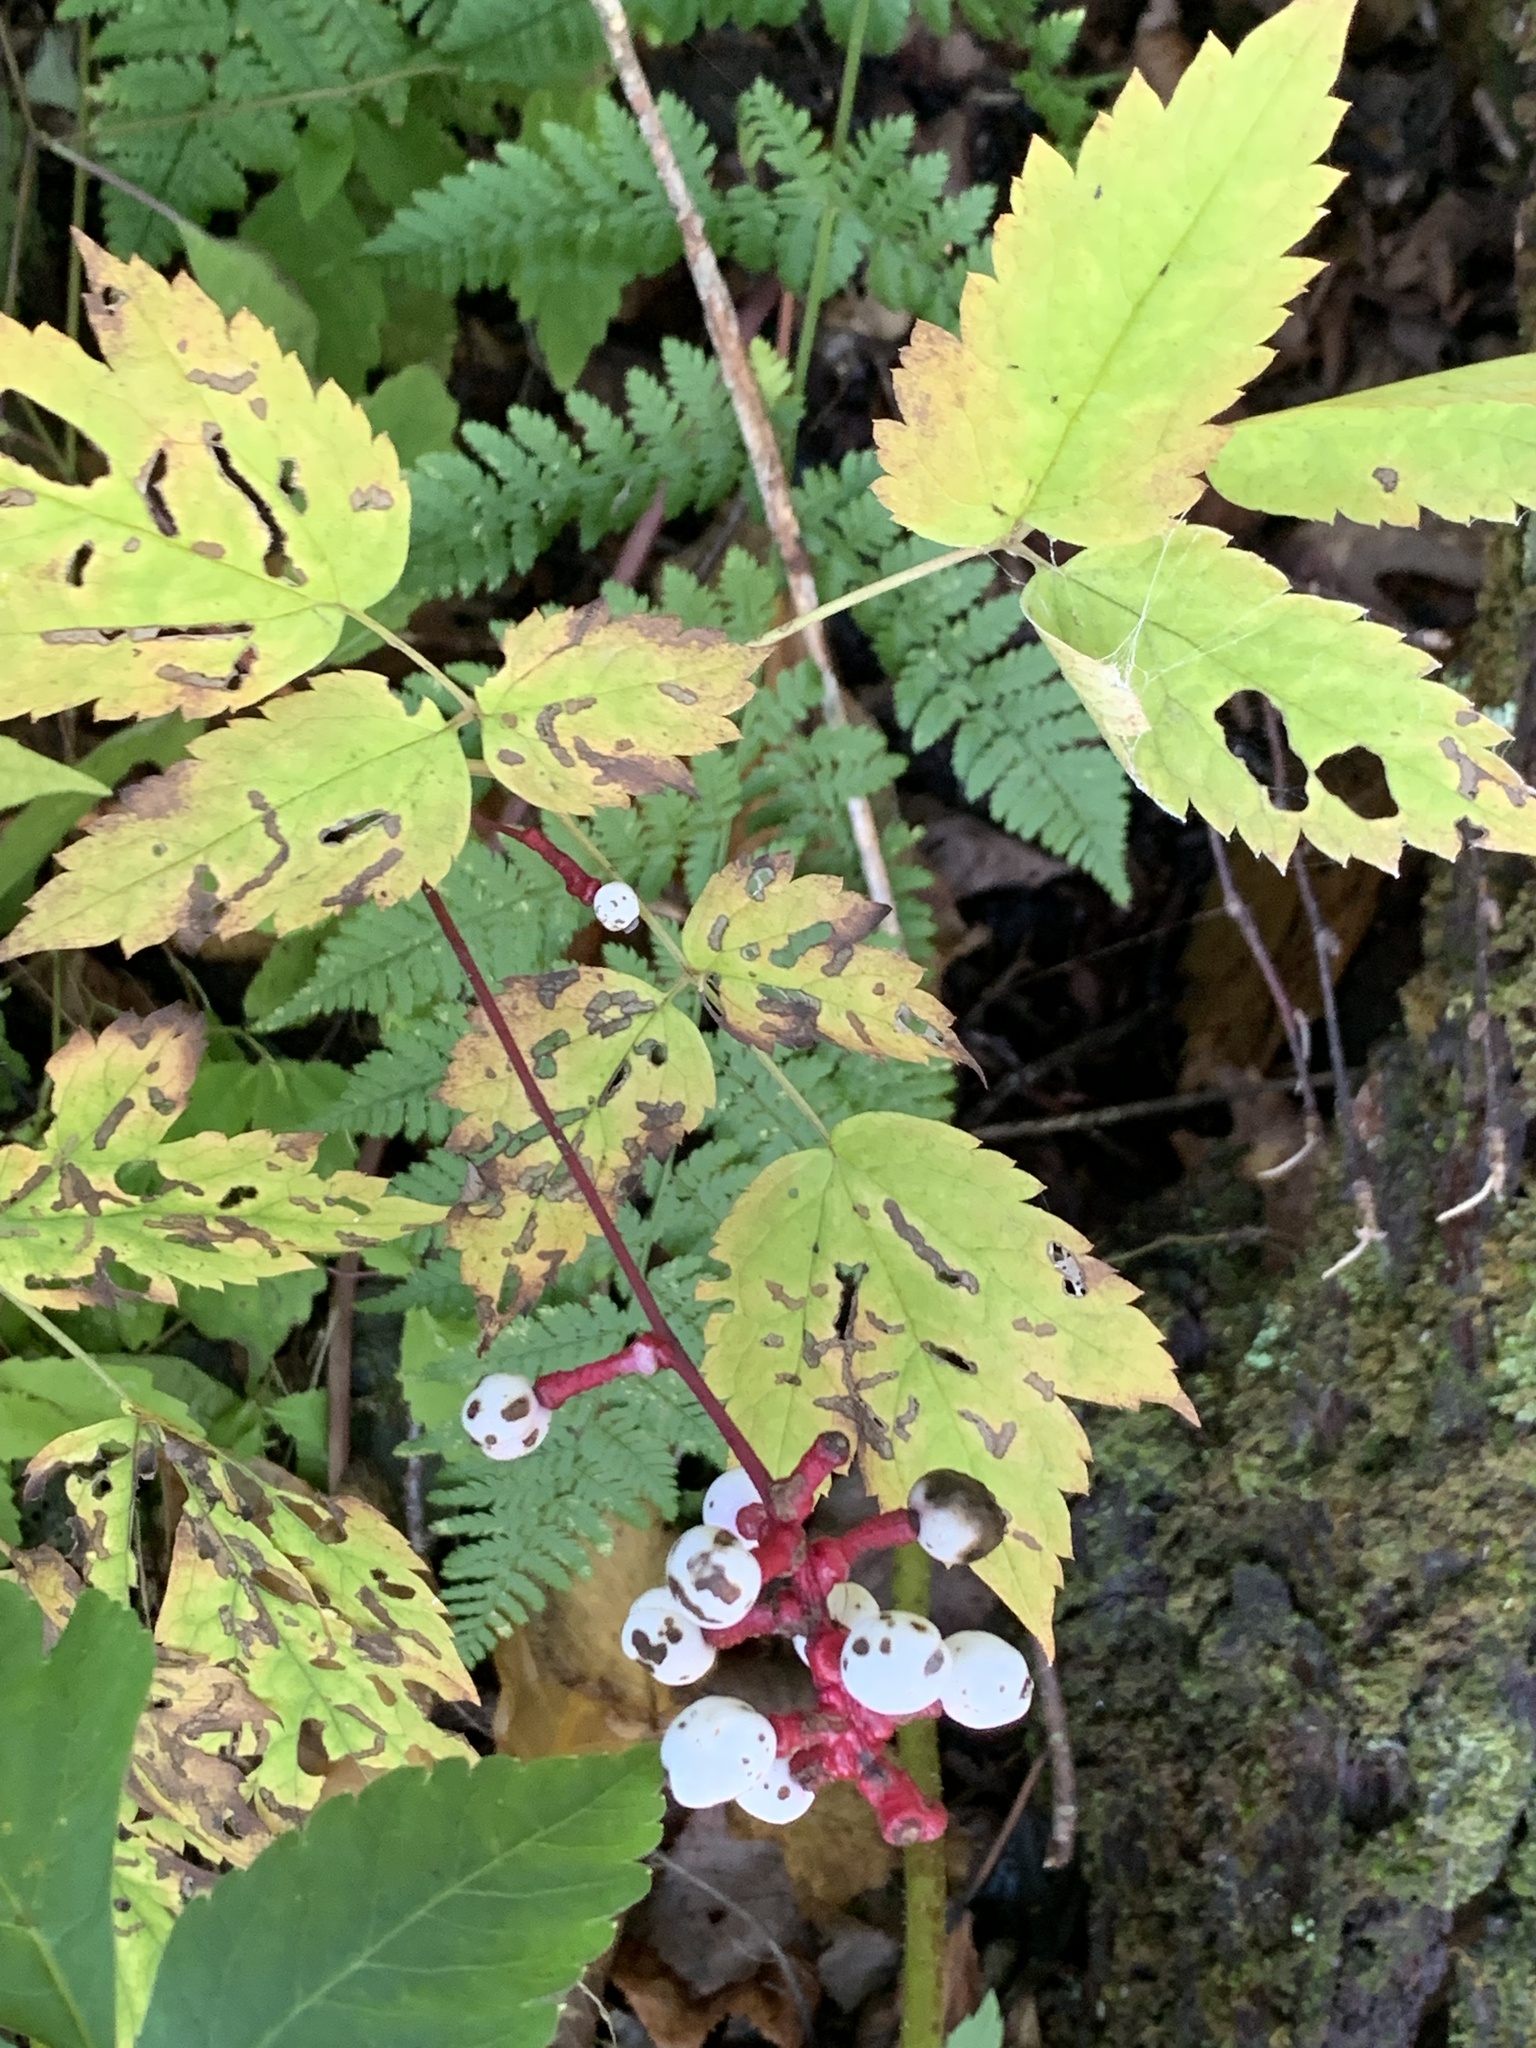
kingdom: Plantae
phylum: Tracheophyta
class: Magnoliopsida
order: Ranunculales
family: Ranunculaceae
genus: Actaea
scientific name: Actaea pachypoda
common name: Doll's-eyes
